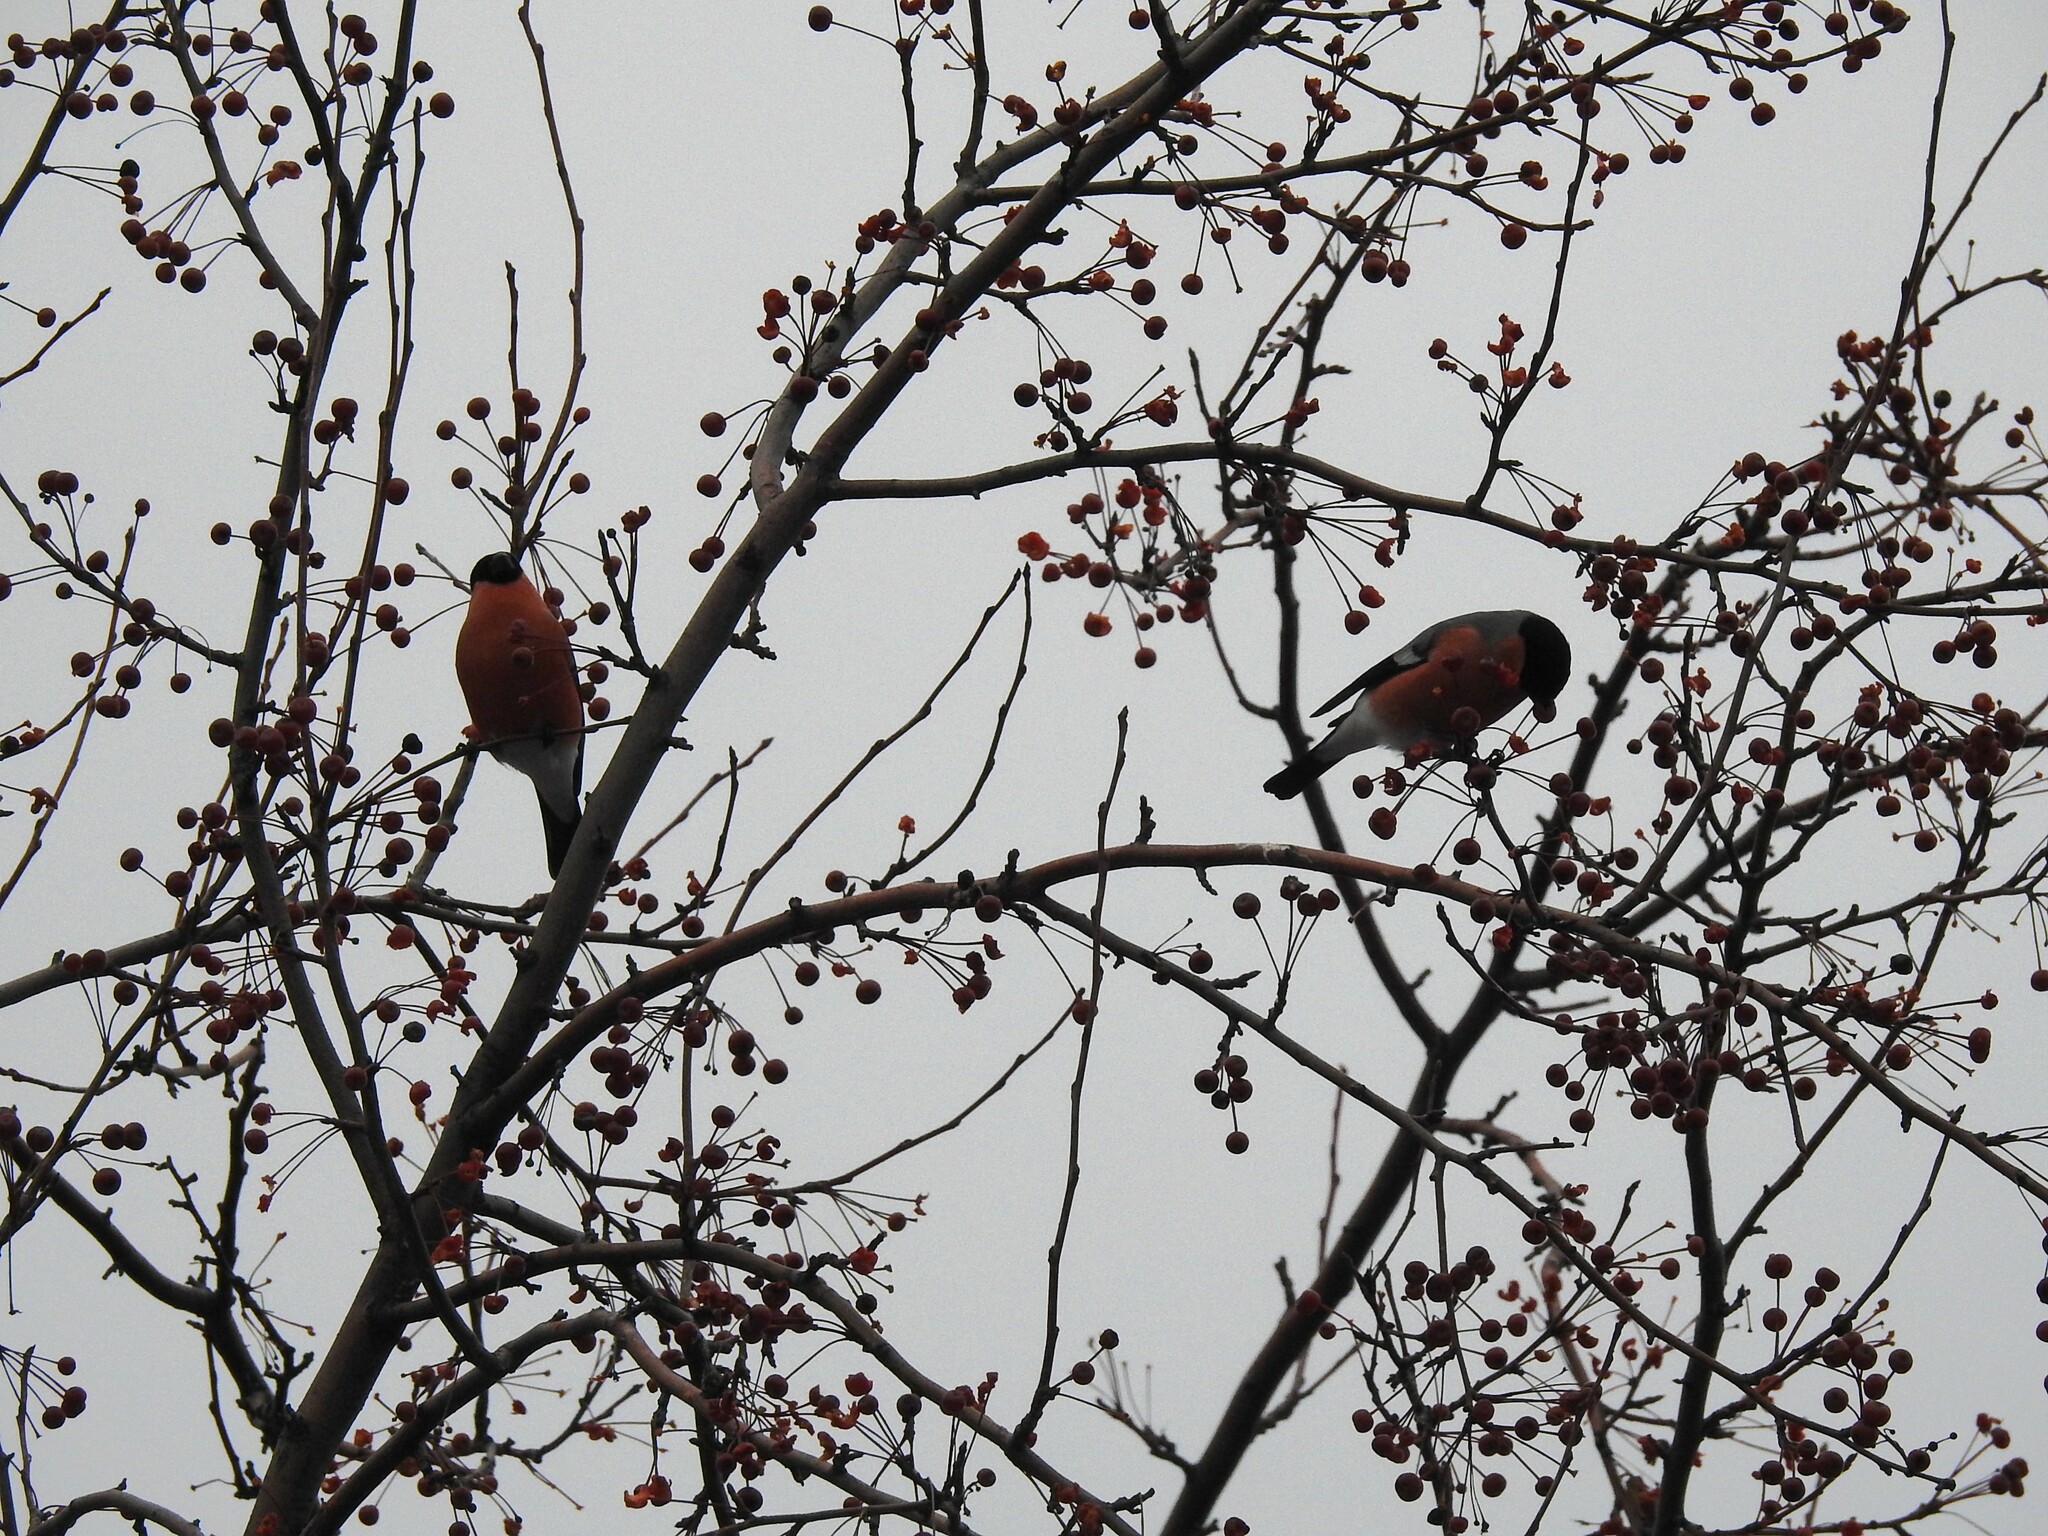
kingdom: Animalia
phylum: Chordata
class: Aves
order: Passeriformes
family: Fringillidae
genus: Pyrrhula
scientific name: Pyrrhula pyrrhula
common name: Eurasian bullfinch
